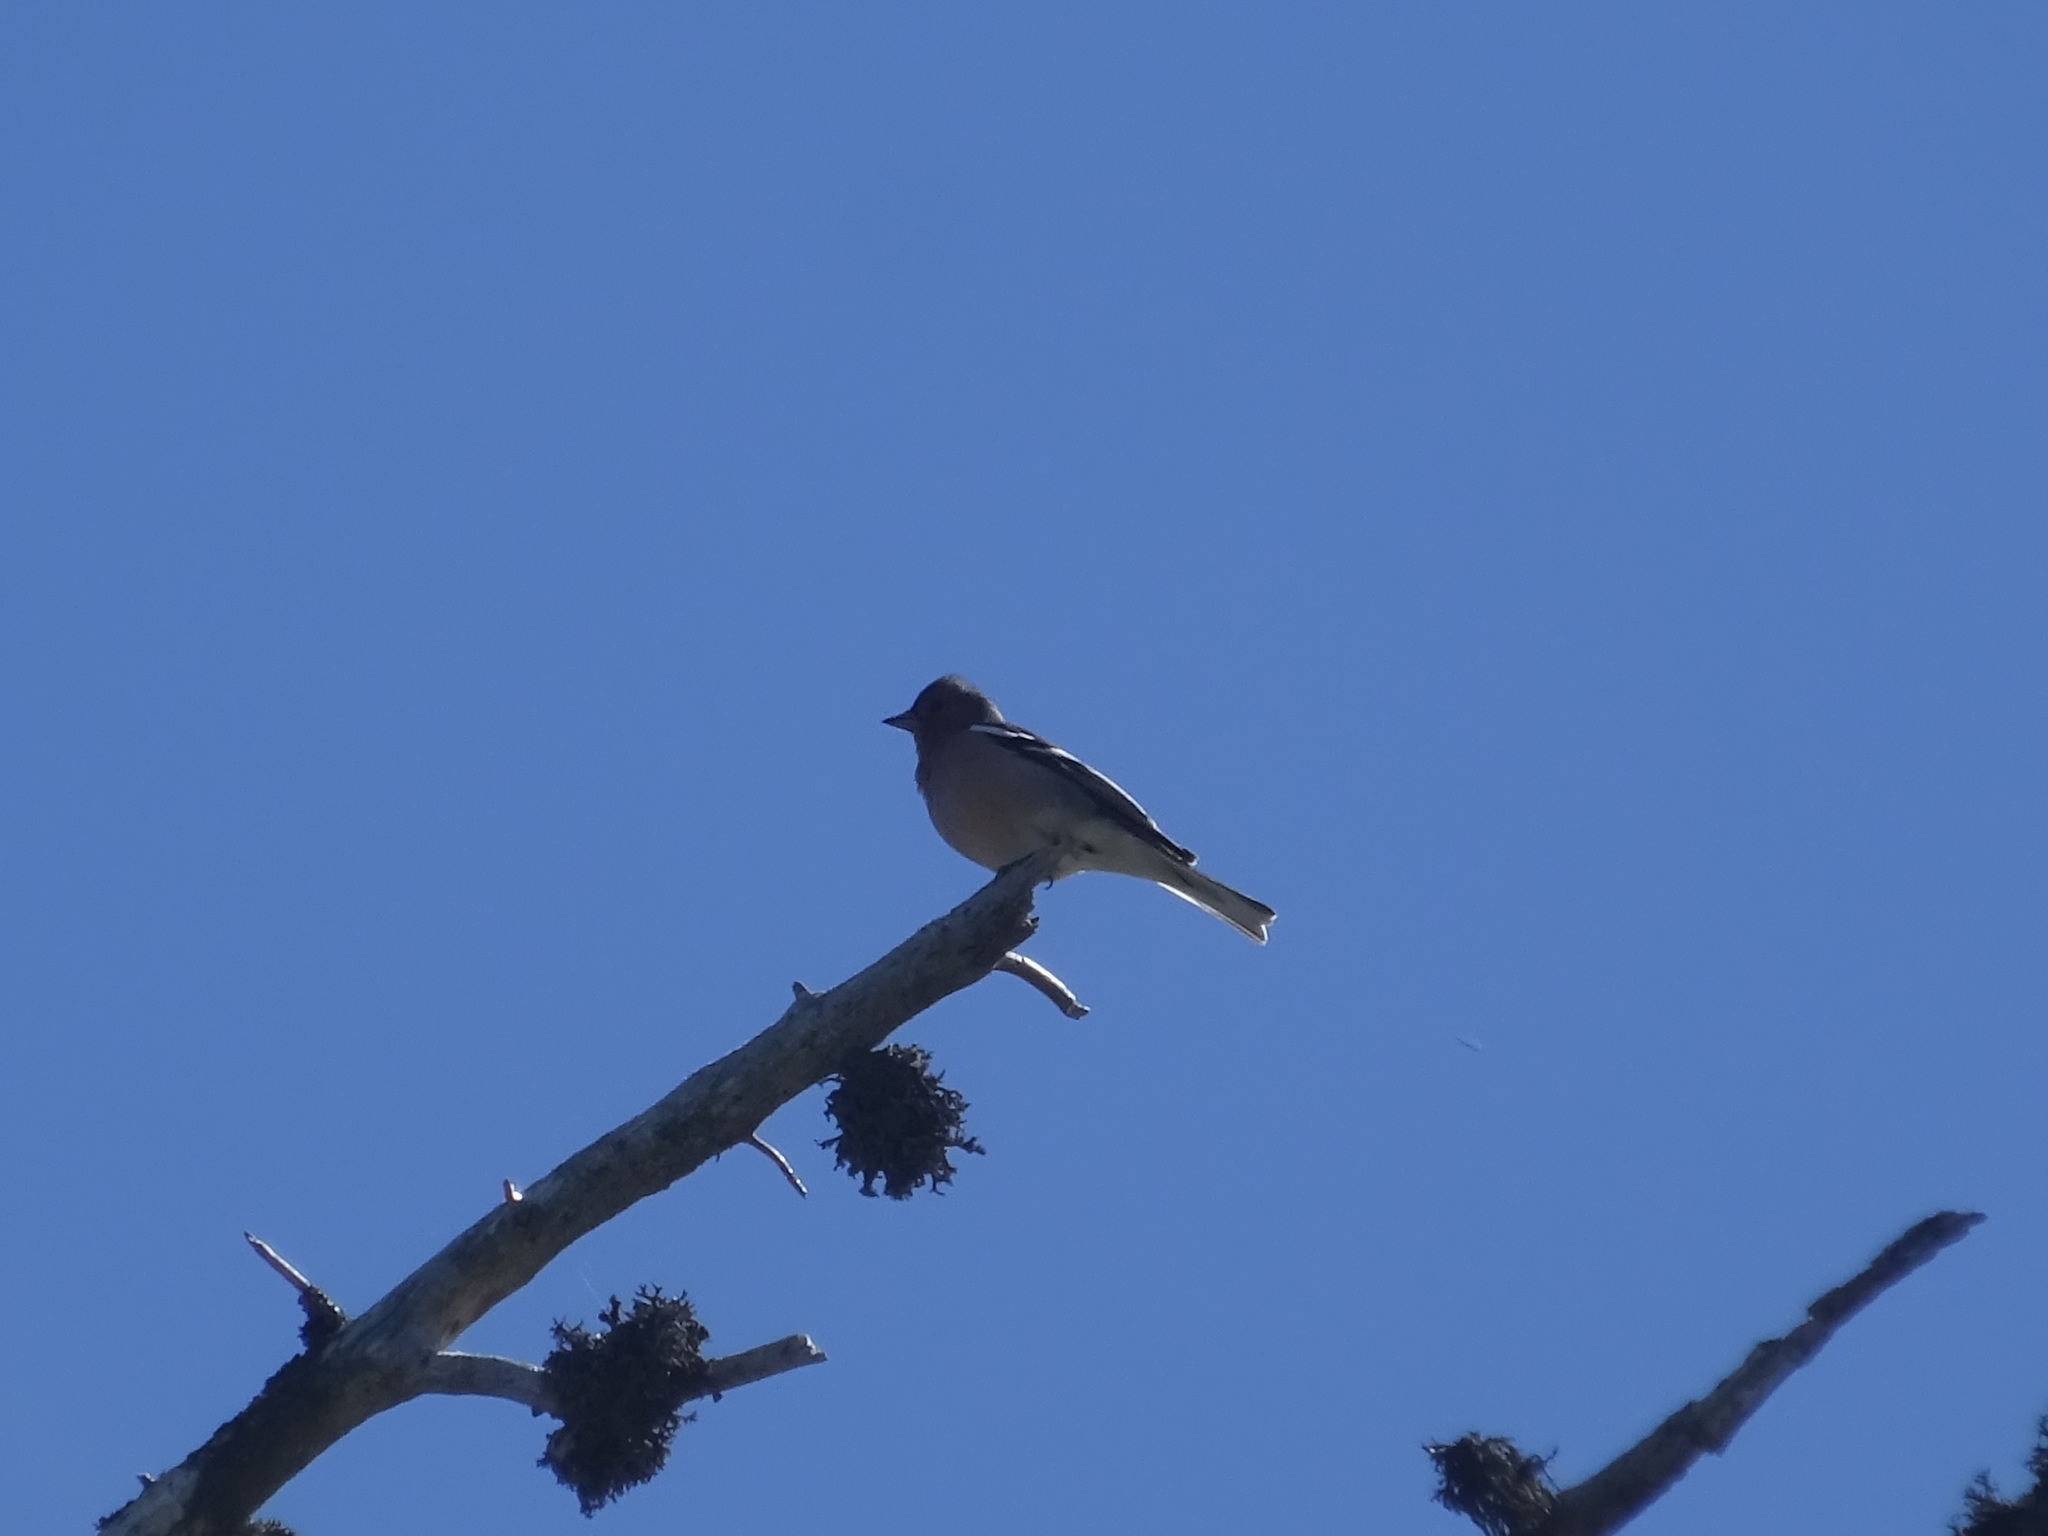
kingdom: Animalia
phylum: Chordata
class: Aves
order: Passeriformes
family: Fringillidae
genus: Fringilla
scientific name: Fringilla coelebs
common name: Common chaffinch
